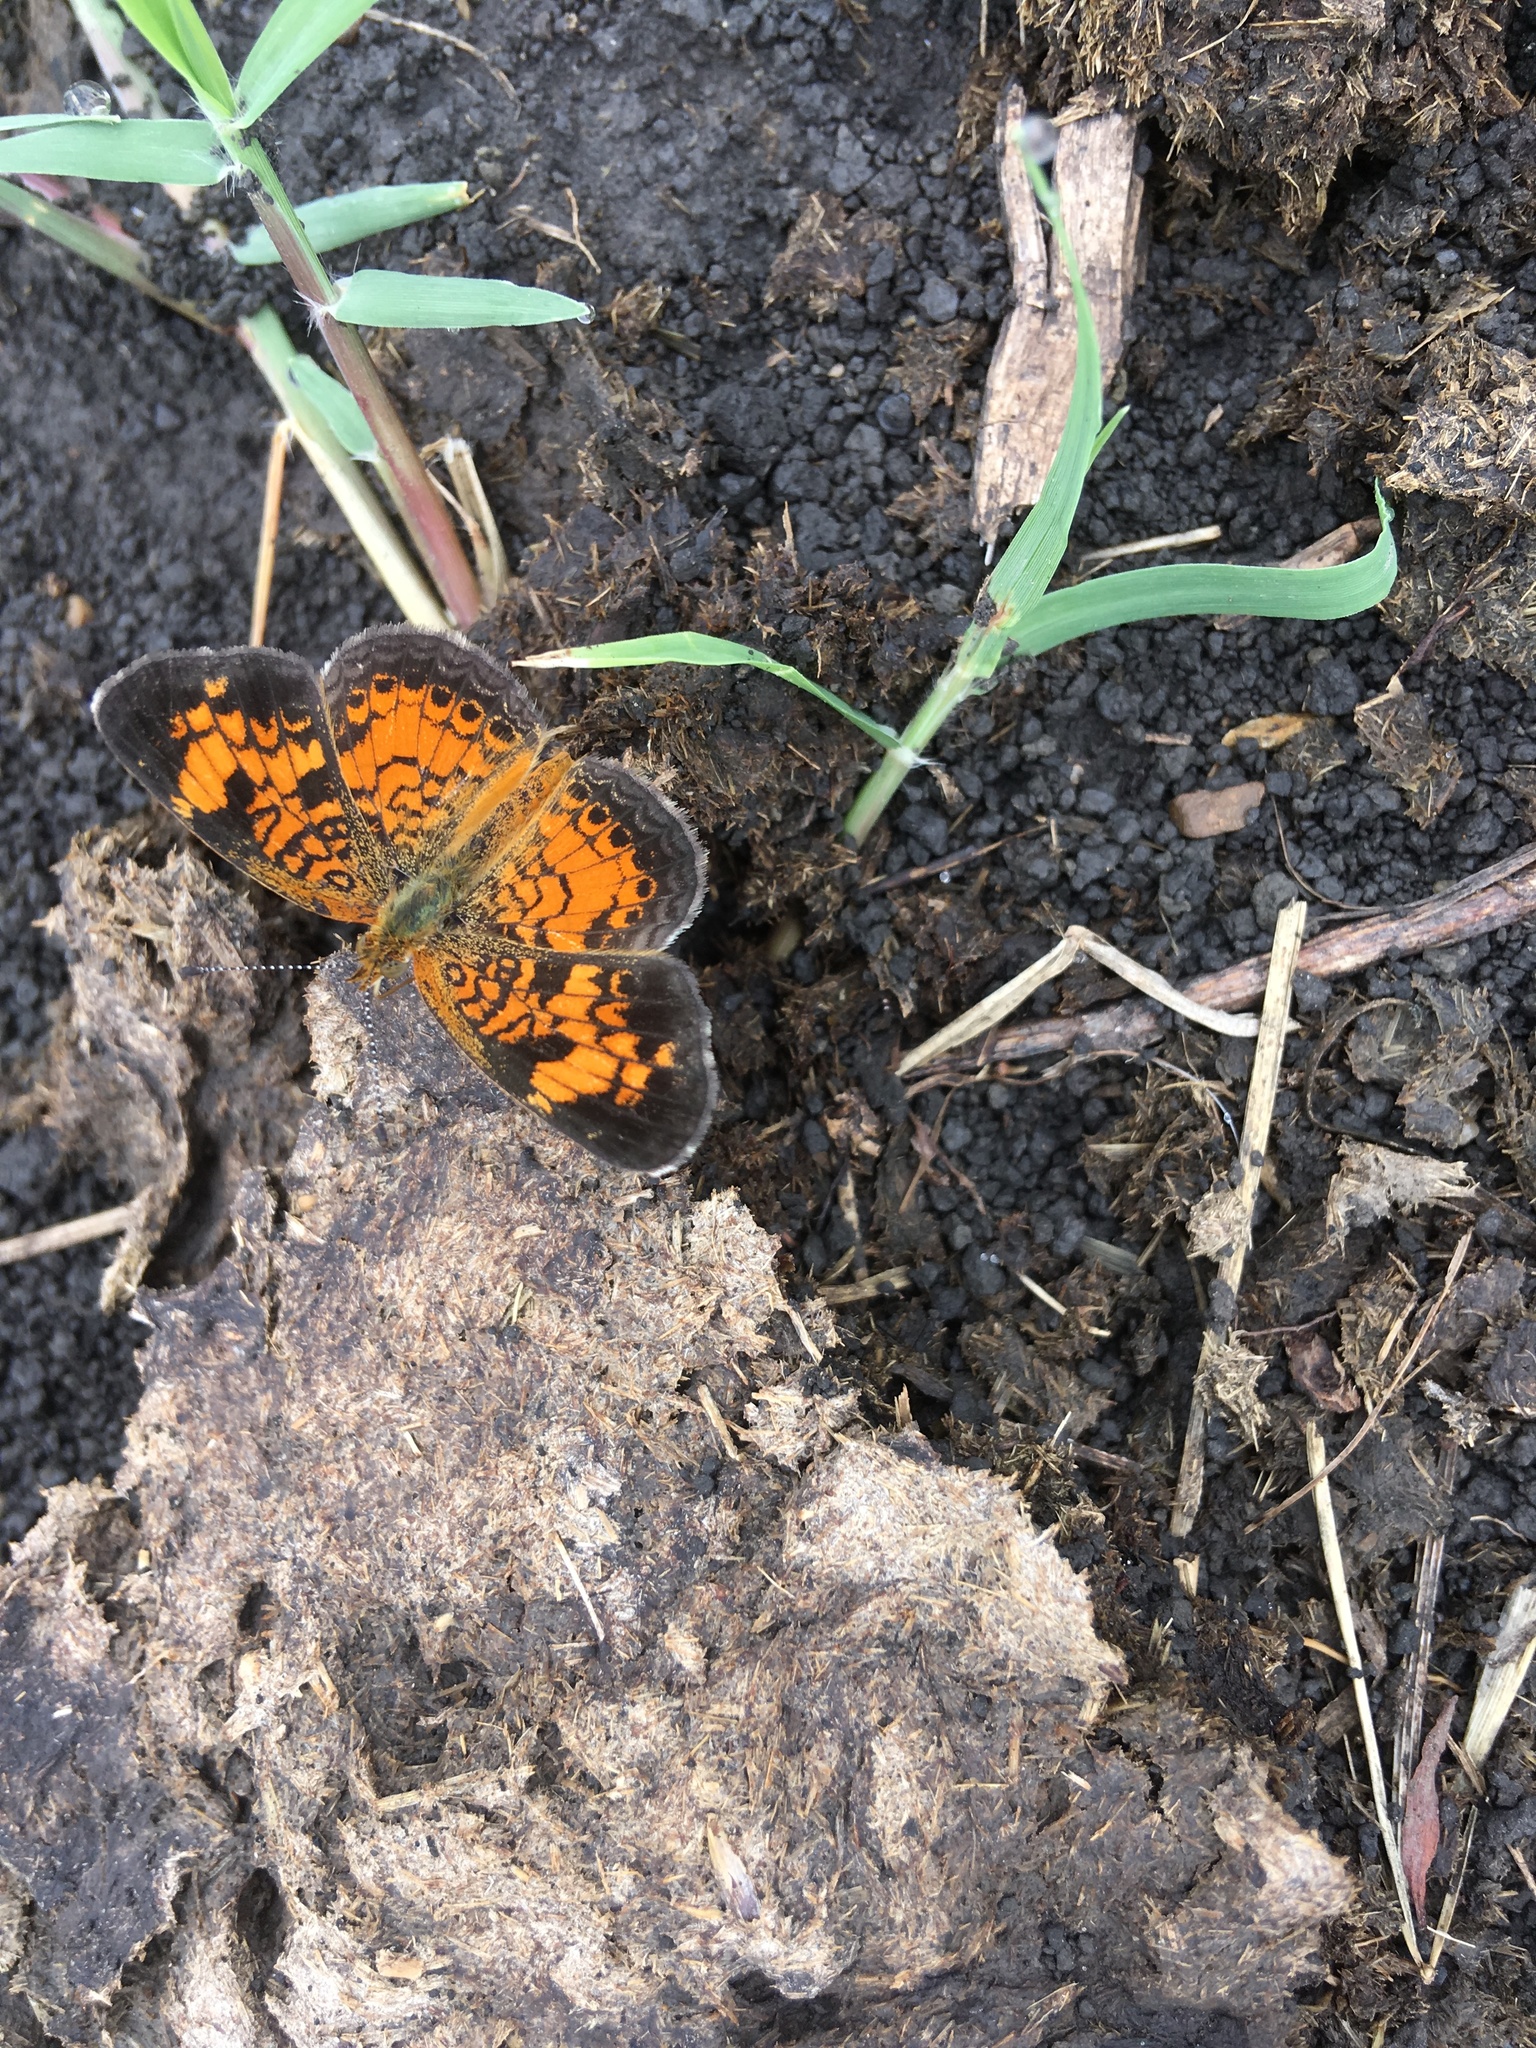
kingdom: Animalia
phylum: Arthropoda
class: Insecta
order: Lepidoptera
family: Nymphalidae
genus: Phyciodes
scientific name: Phyciodes tharos
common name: Pearl crescent
